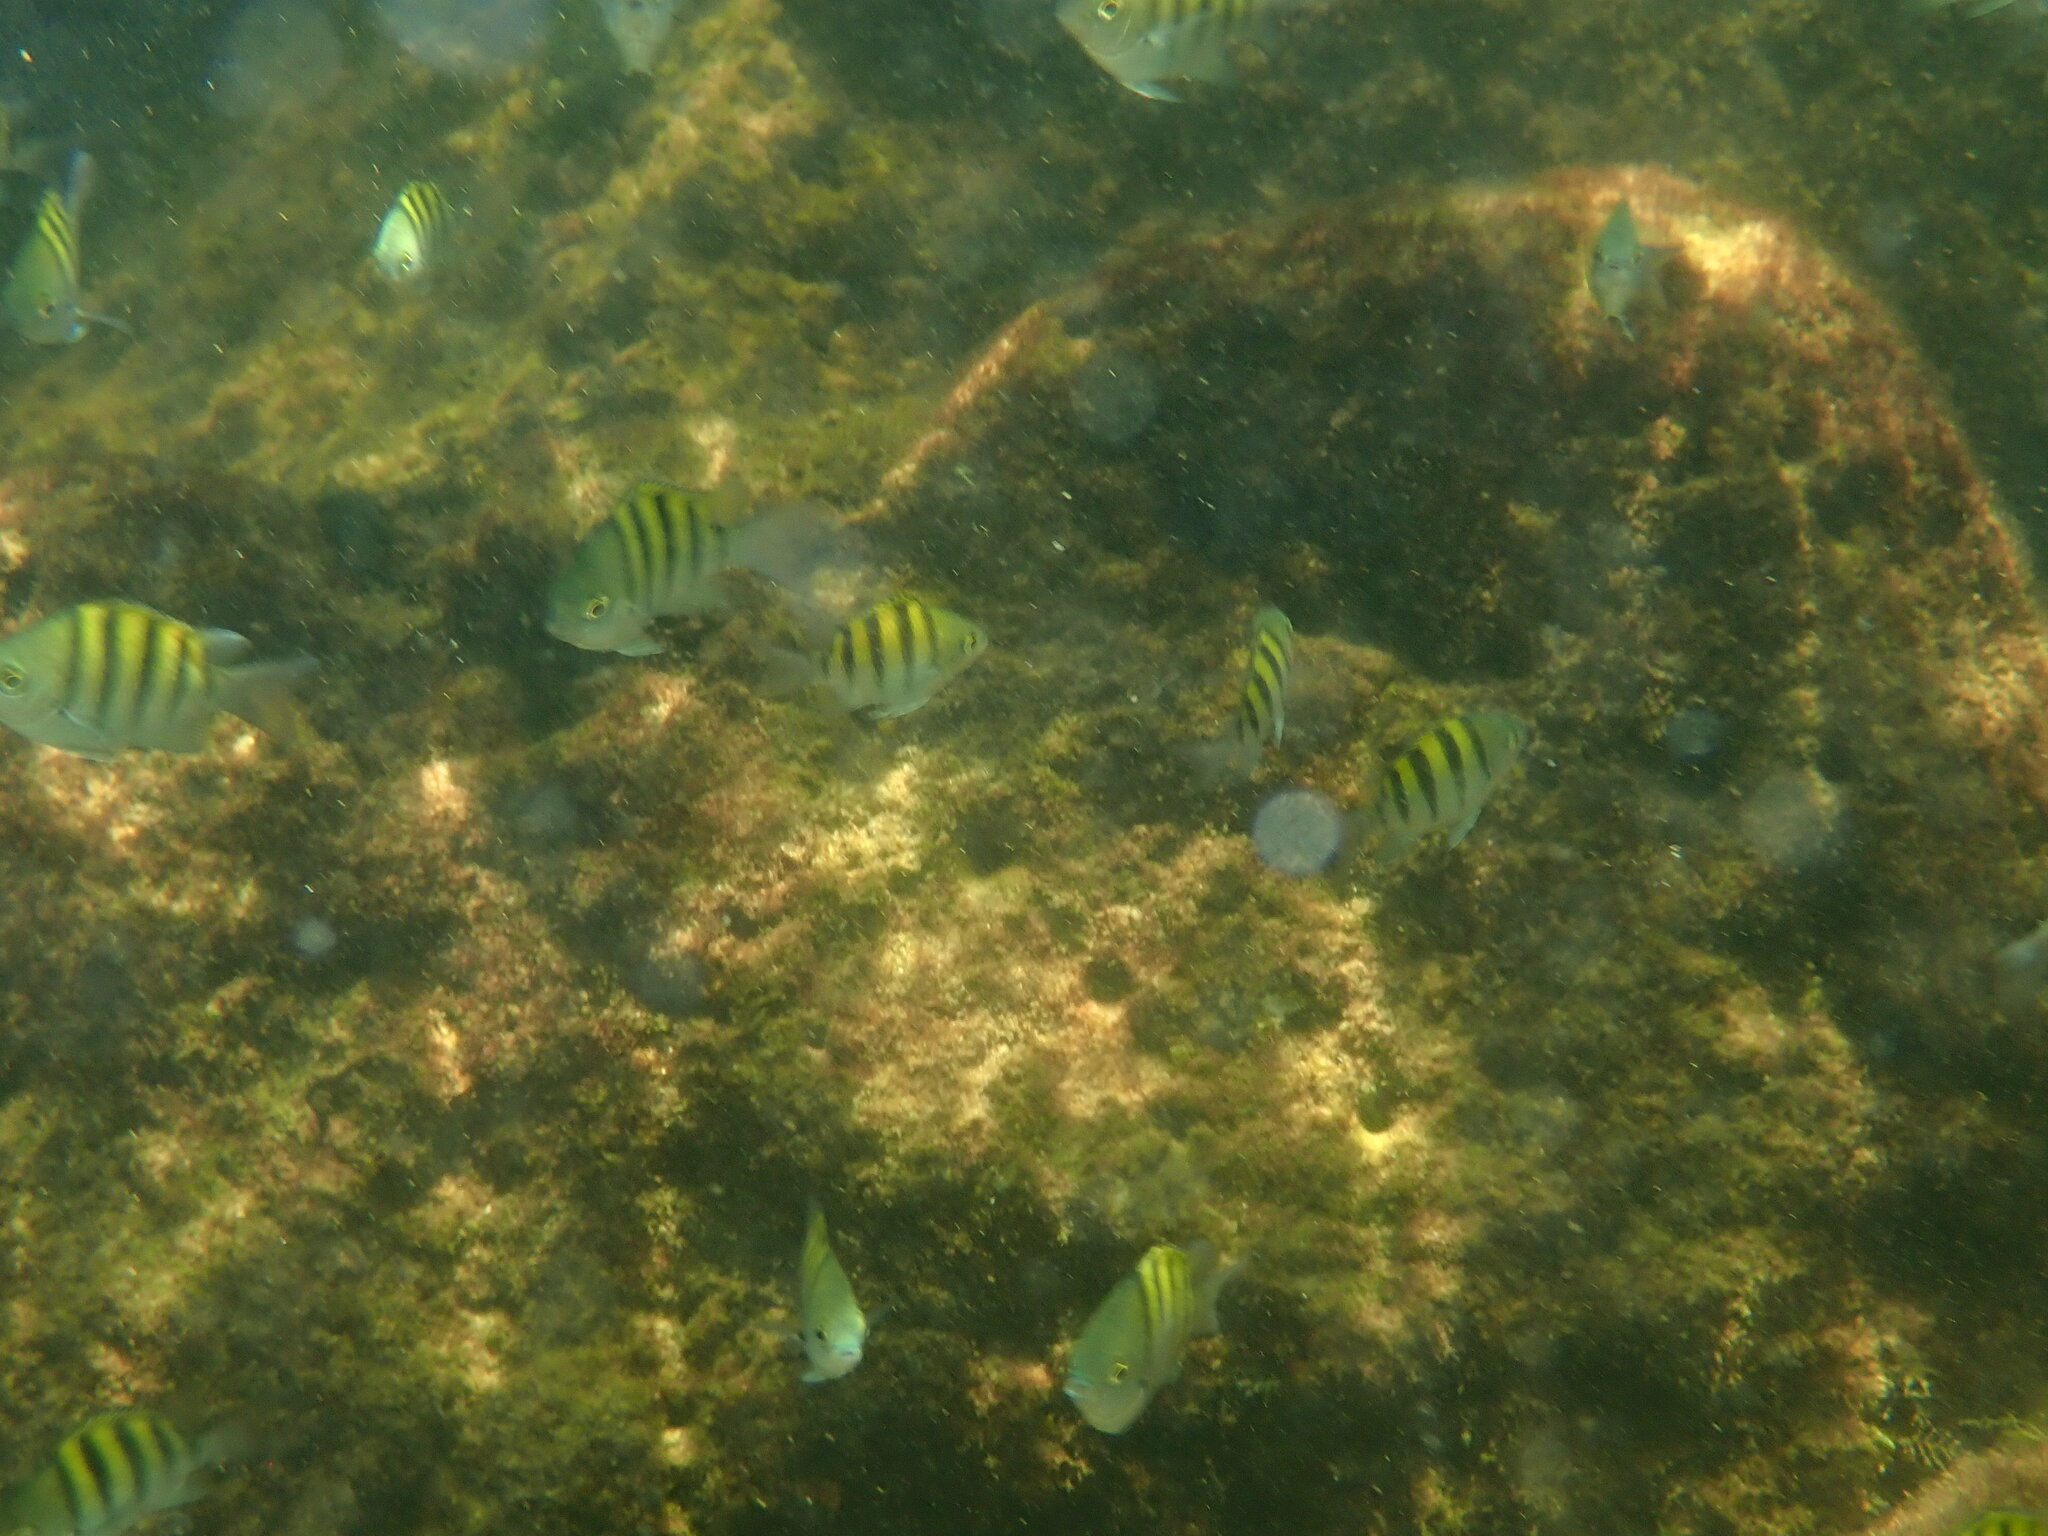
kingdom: Animalia
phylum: Chordata
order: Perciformes
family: Pomacentridae
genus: Abudefduf
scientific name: Abudefduf saxatilis
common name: Sergeant major
